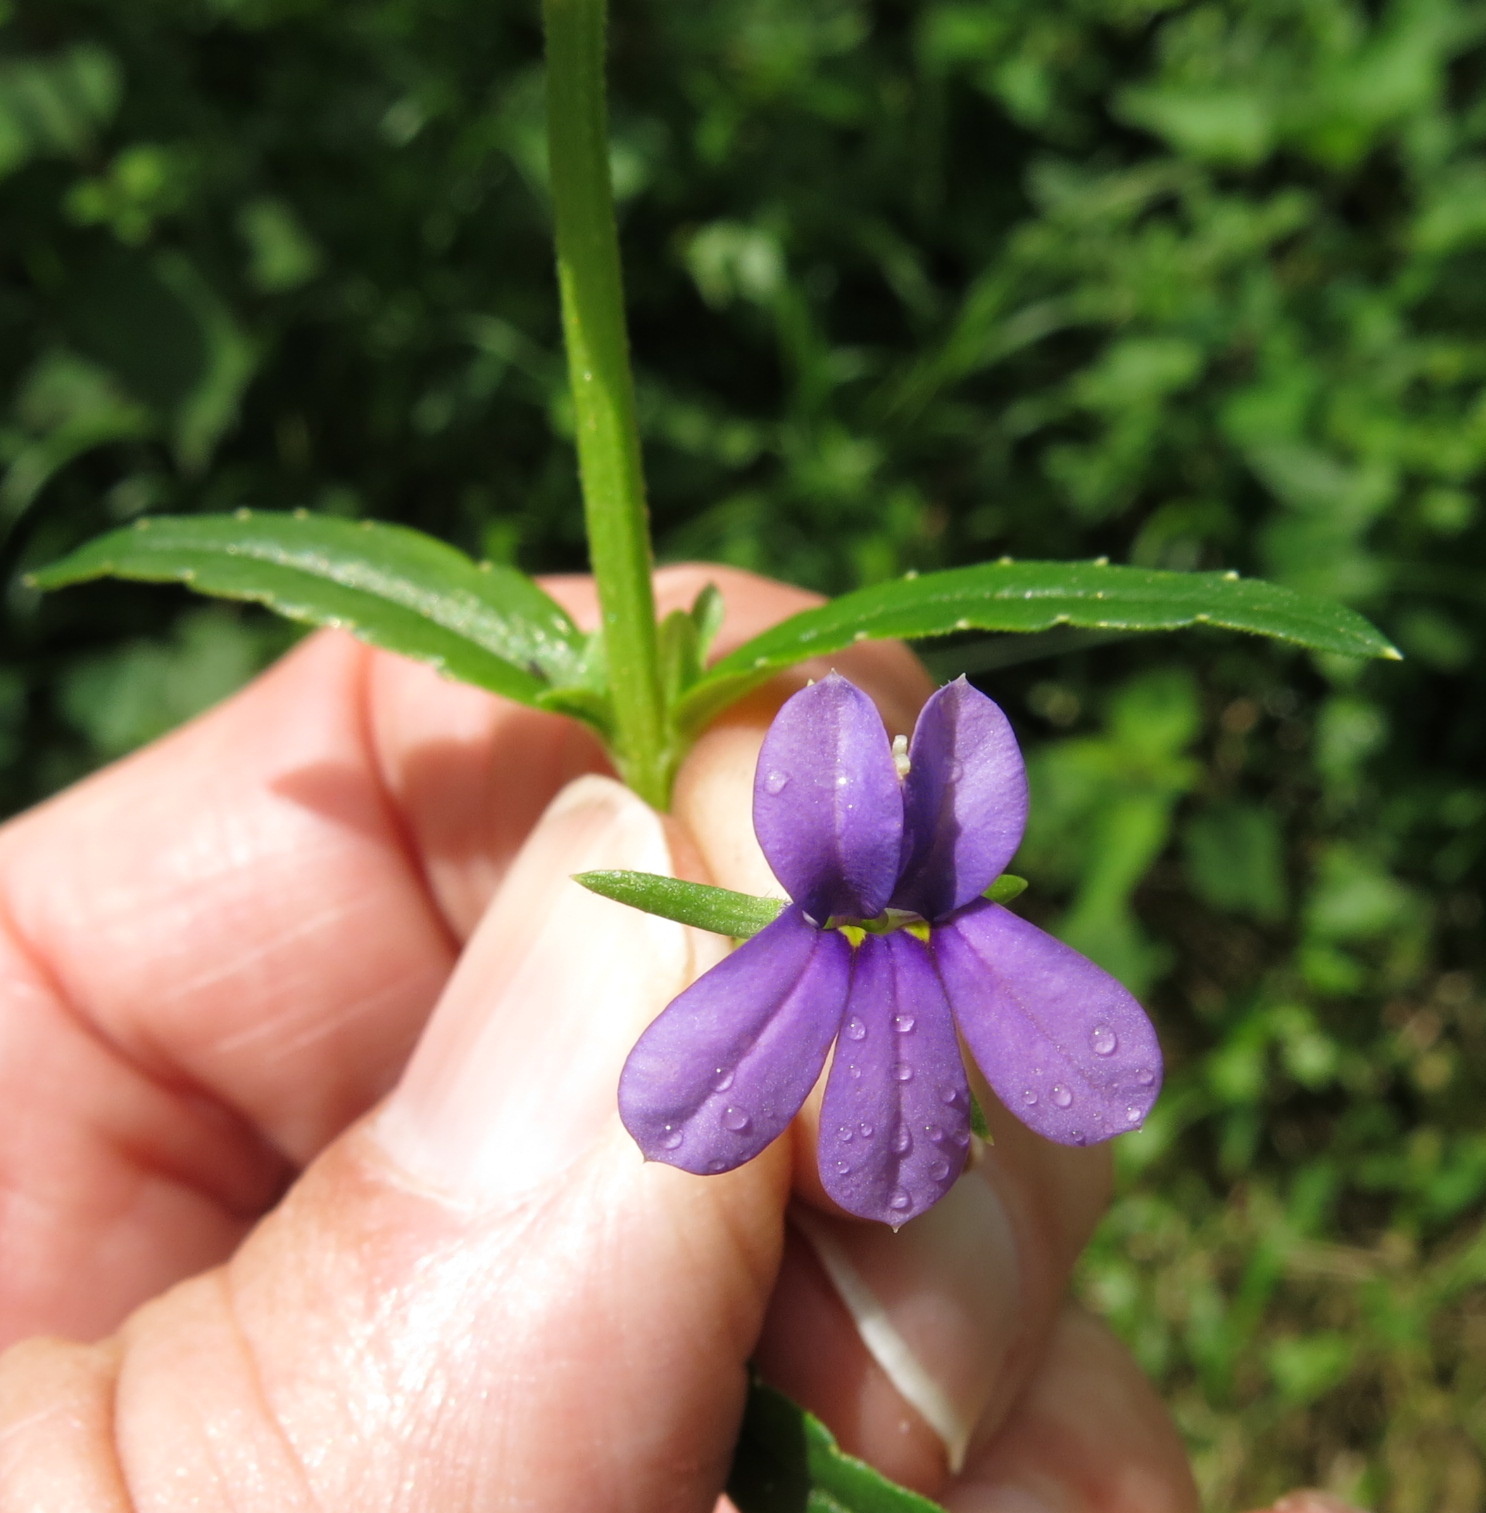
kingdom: Plantae
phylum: Tracheophyta
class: Magnoliopsida
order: Asterales
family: Campanulaceae
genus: Monopsis
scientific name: Monopsis stellarioides
